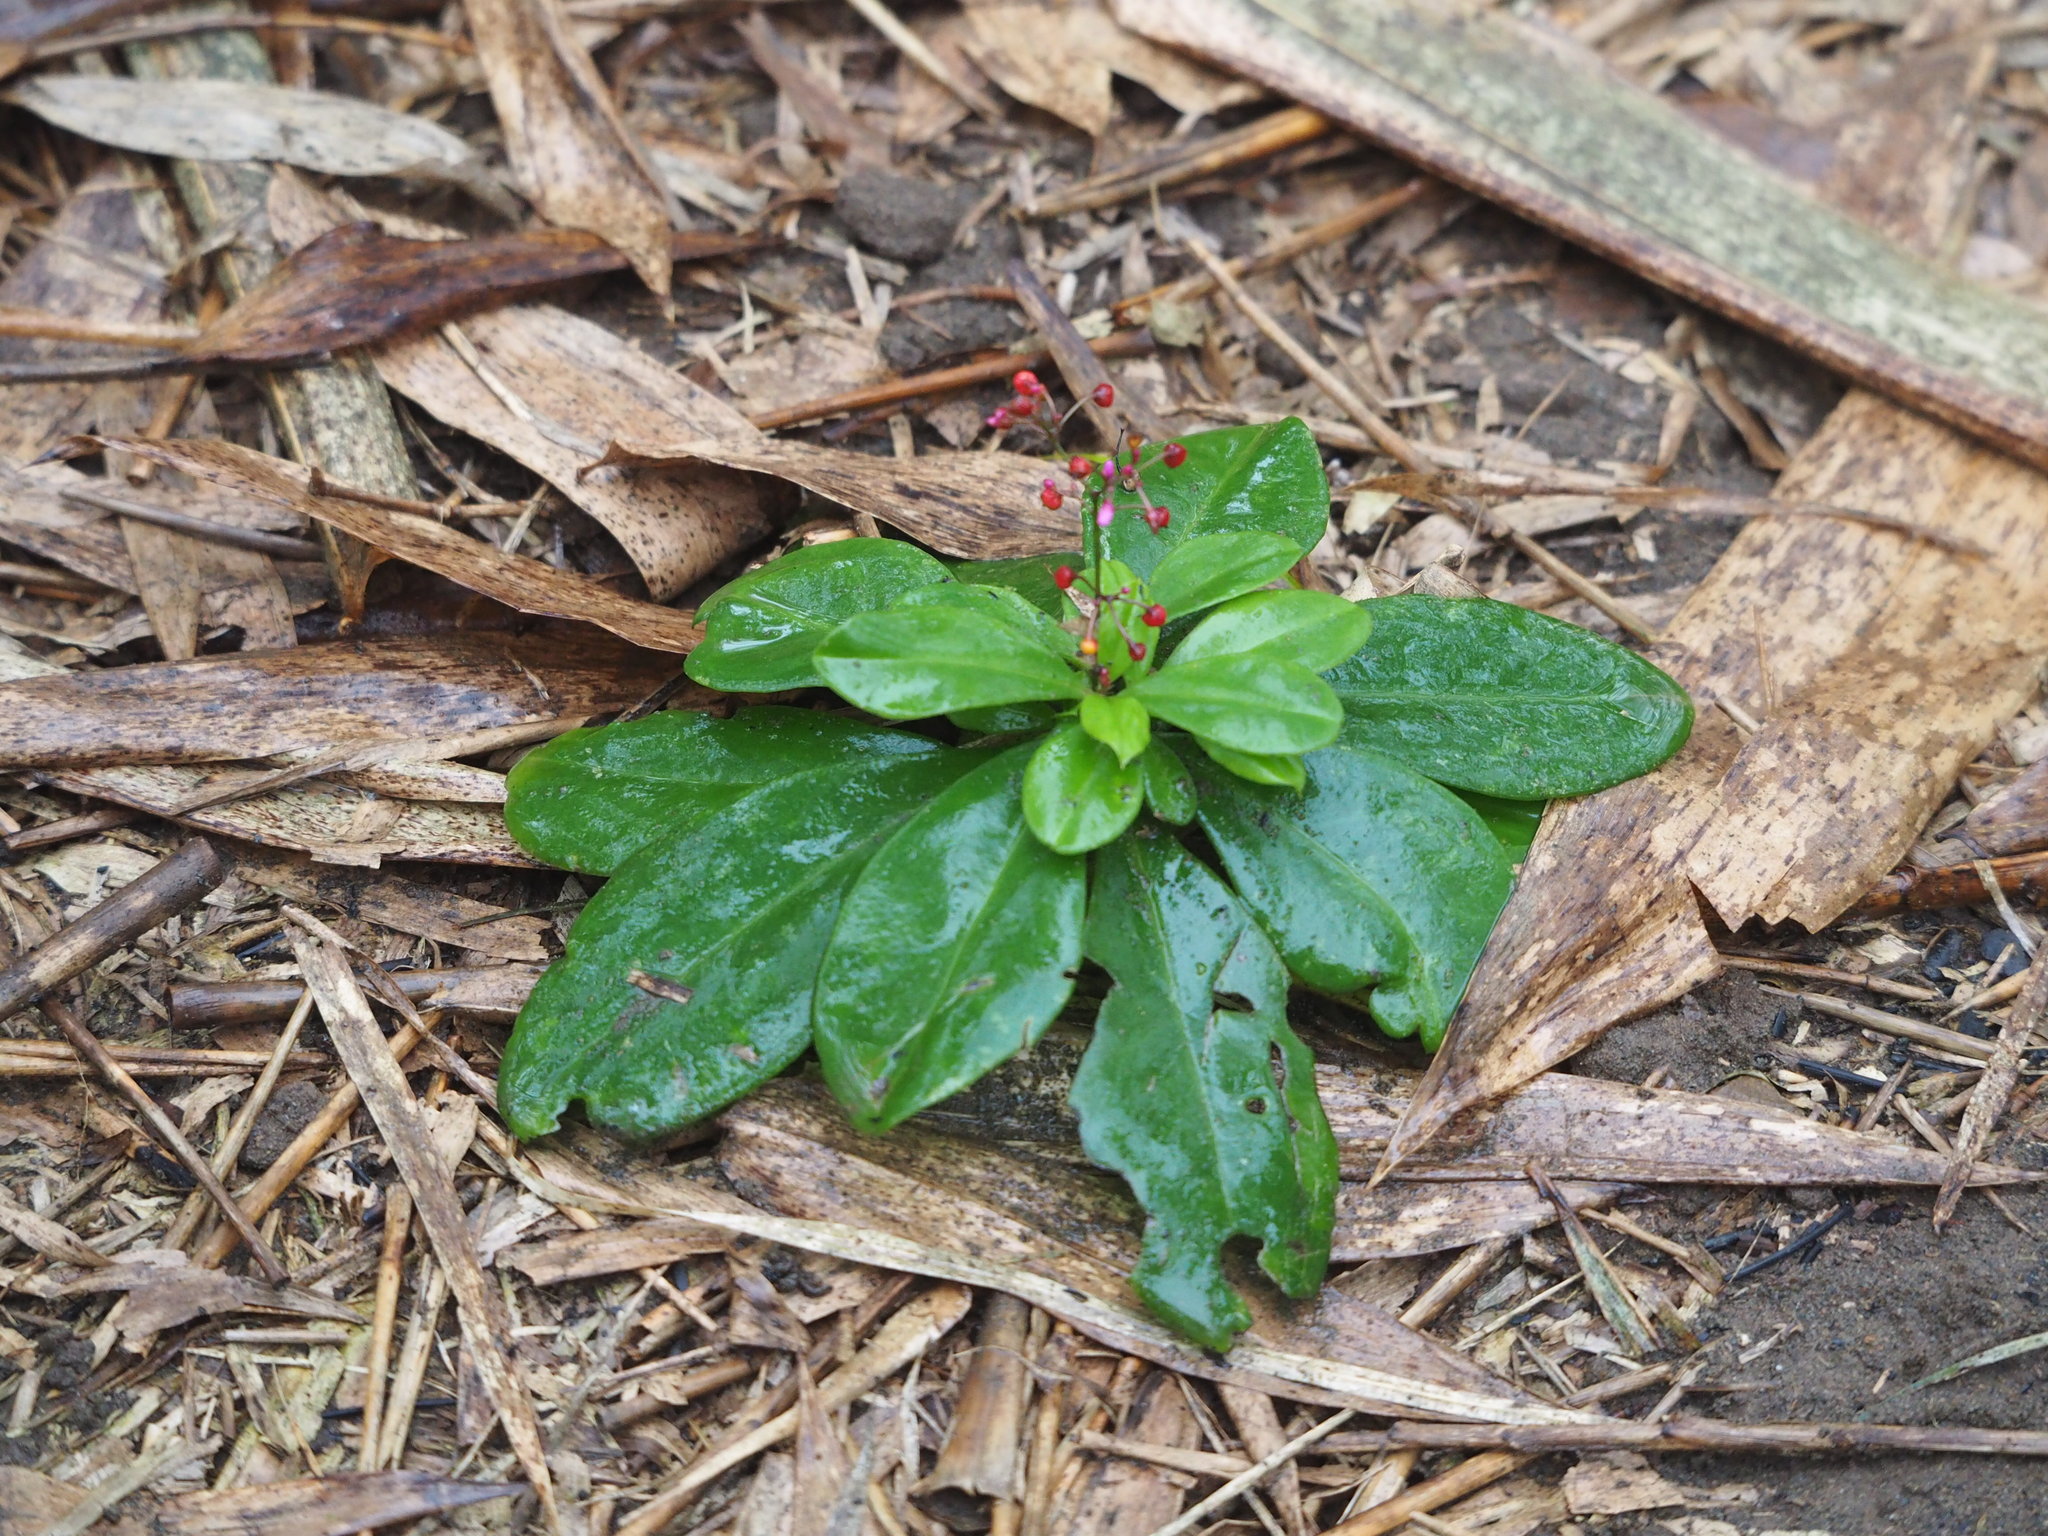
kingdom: Plantae
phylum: Tracheophyta
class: Magnoliopsida
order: Caryophyllales
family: Talinaceae
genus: Talinum
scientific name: Talinum paniculatum
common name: Jewels of opar
